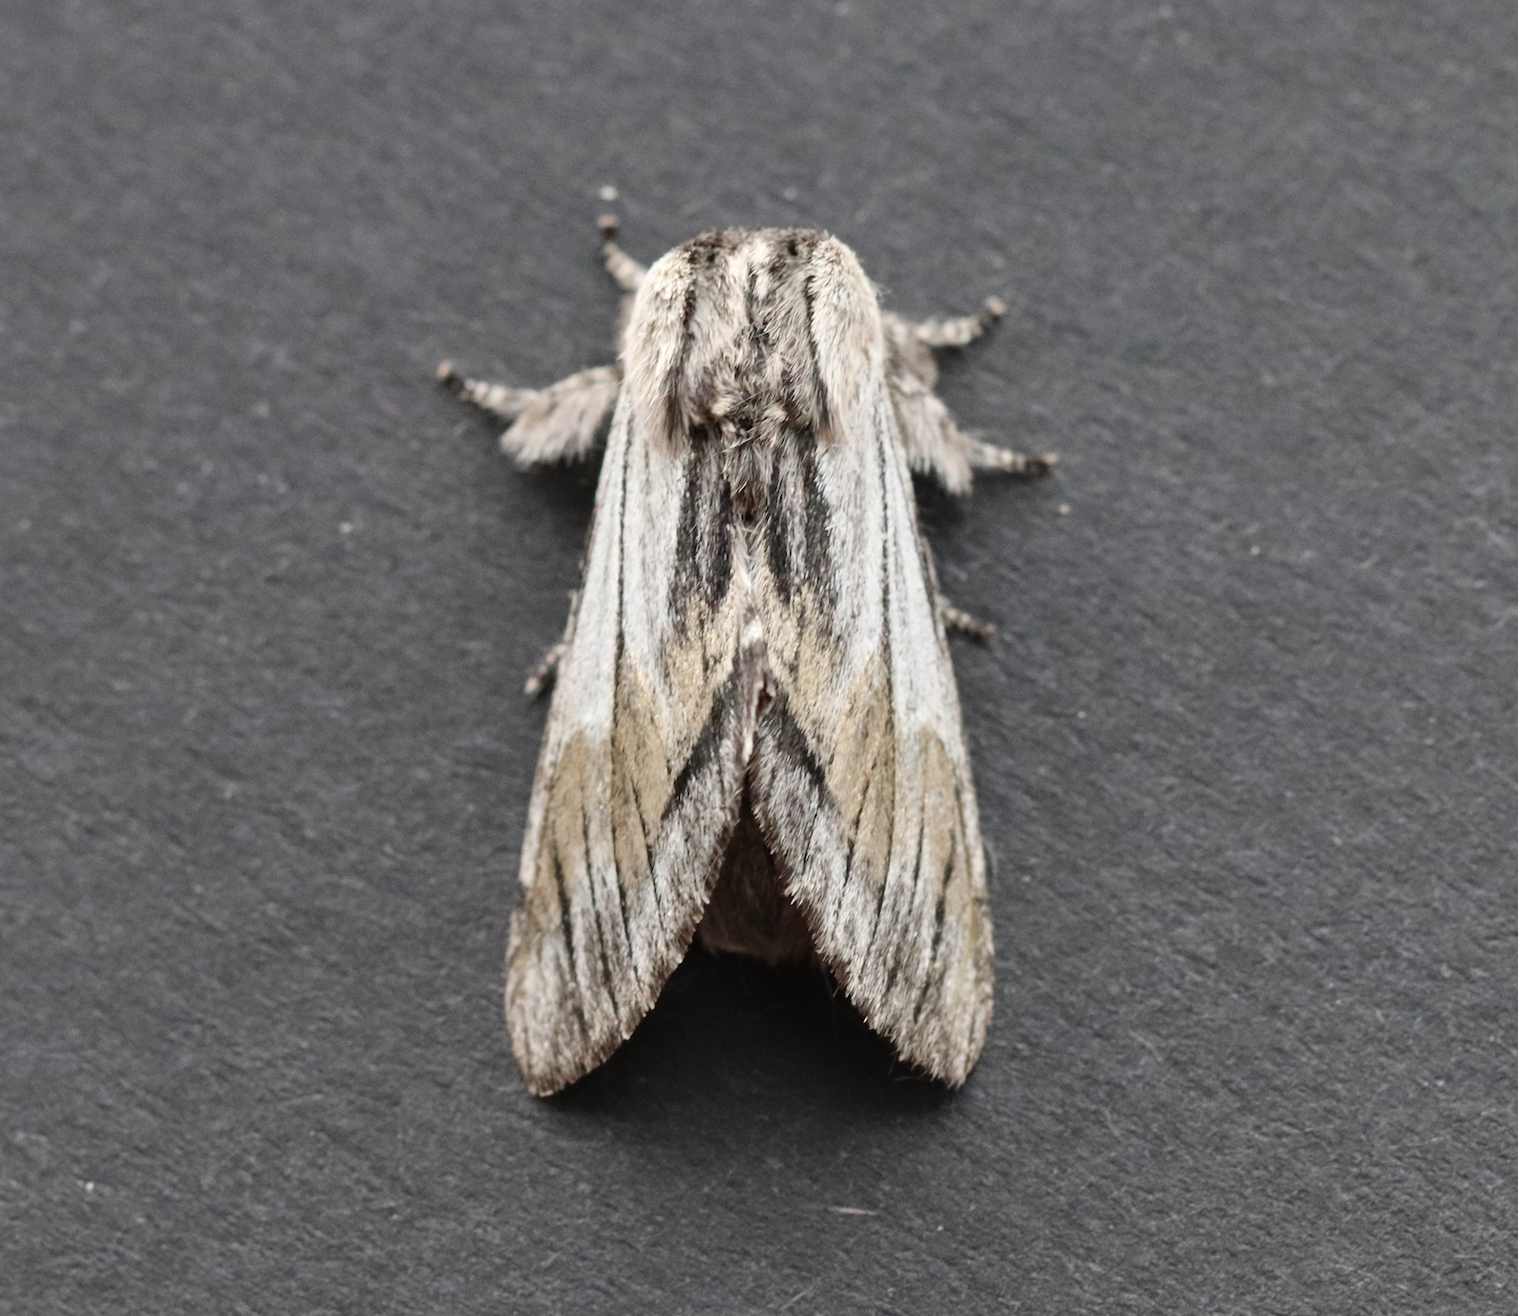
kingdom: Animalia
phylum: Arthropoda
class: Insecta
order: Lepidoptera
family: Notodontidae
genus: Harpyia
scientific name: Harpyia milhauseri
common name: Tawny prominent
